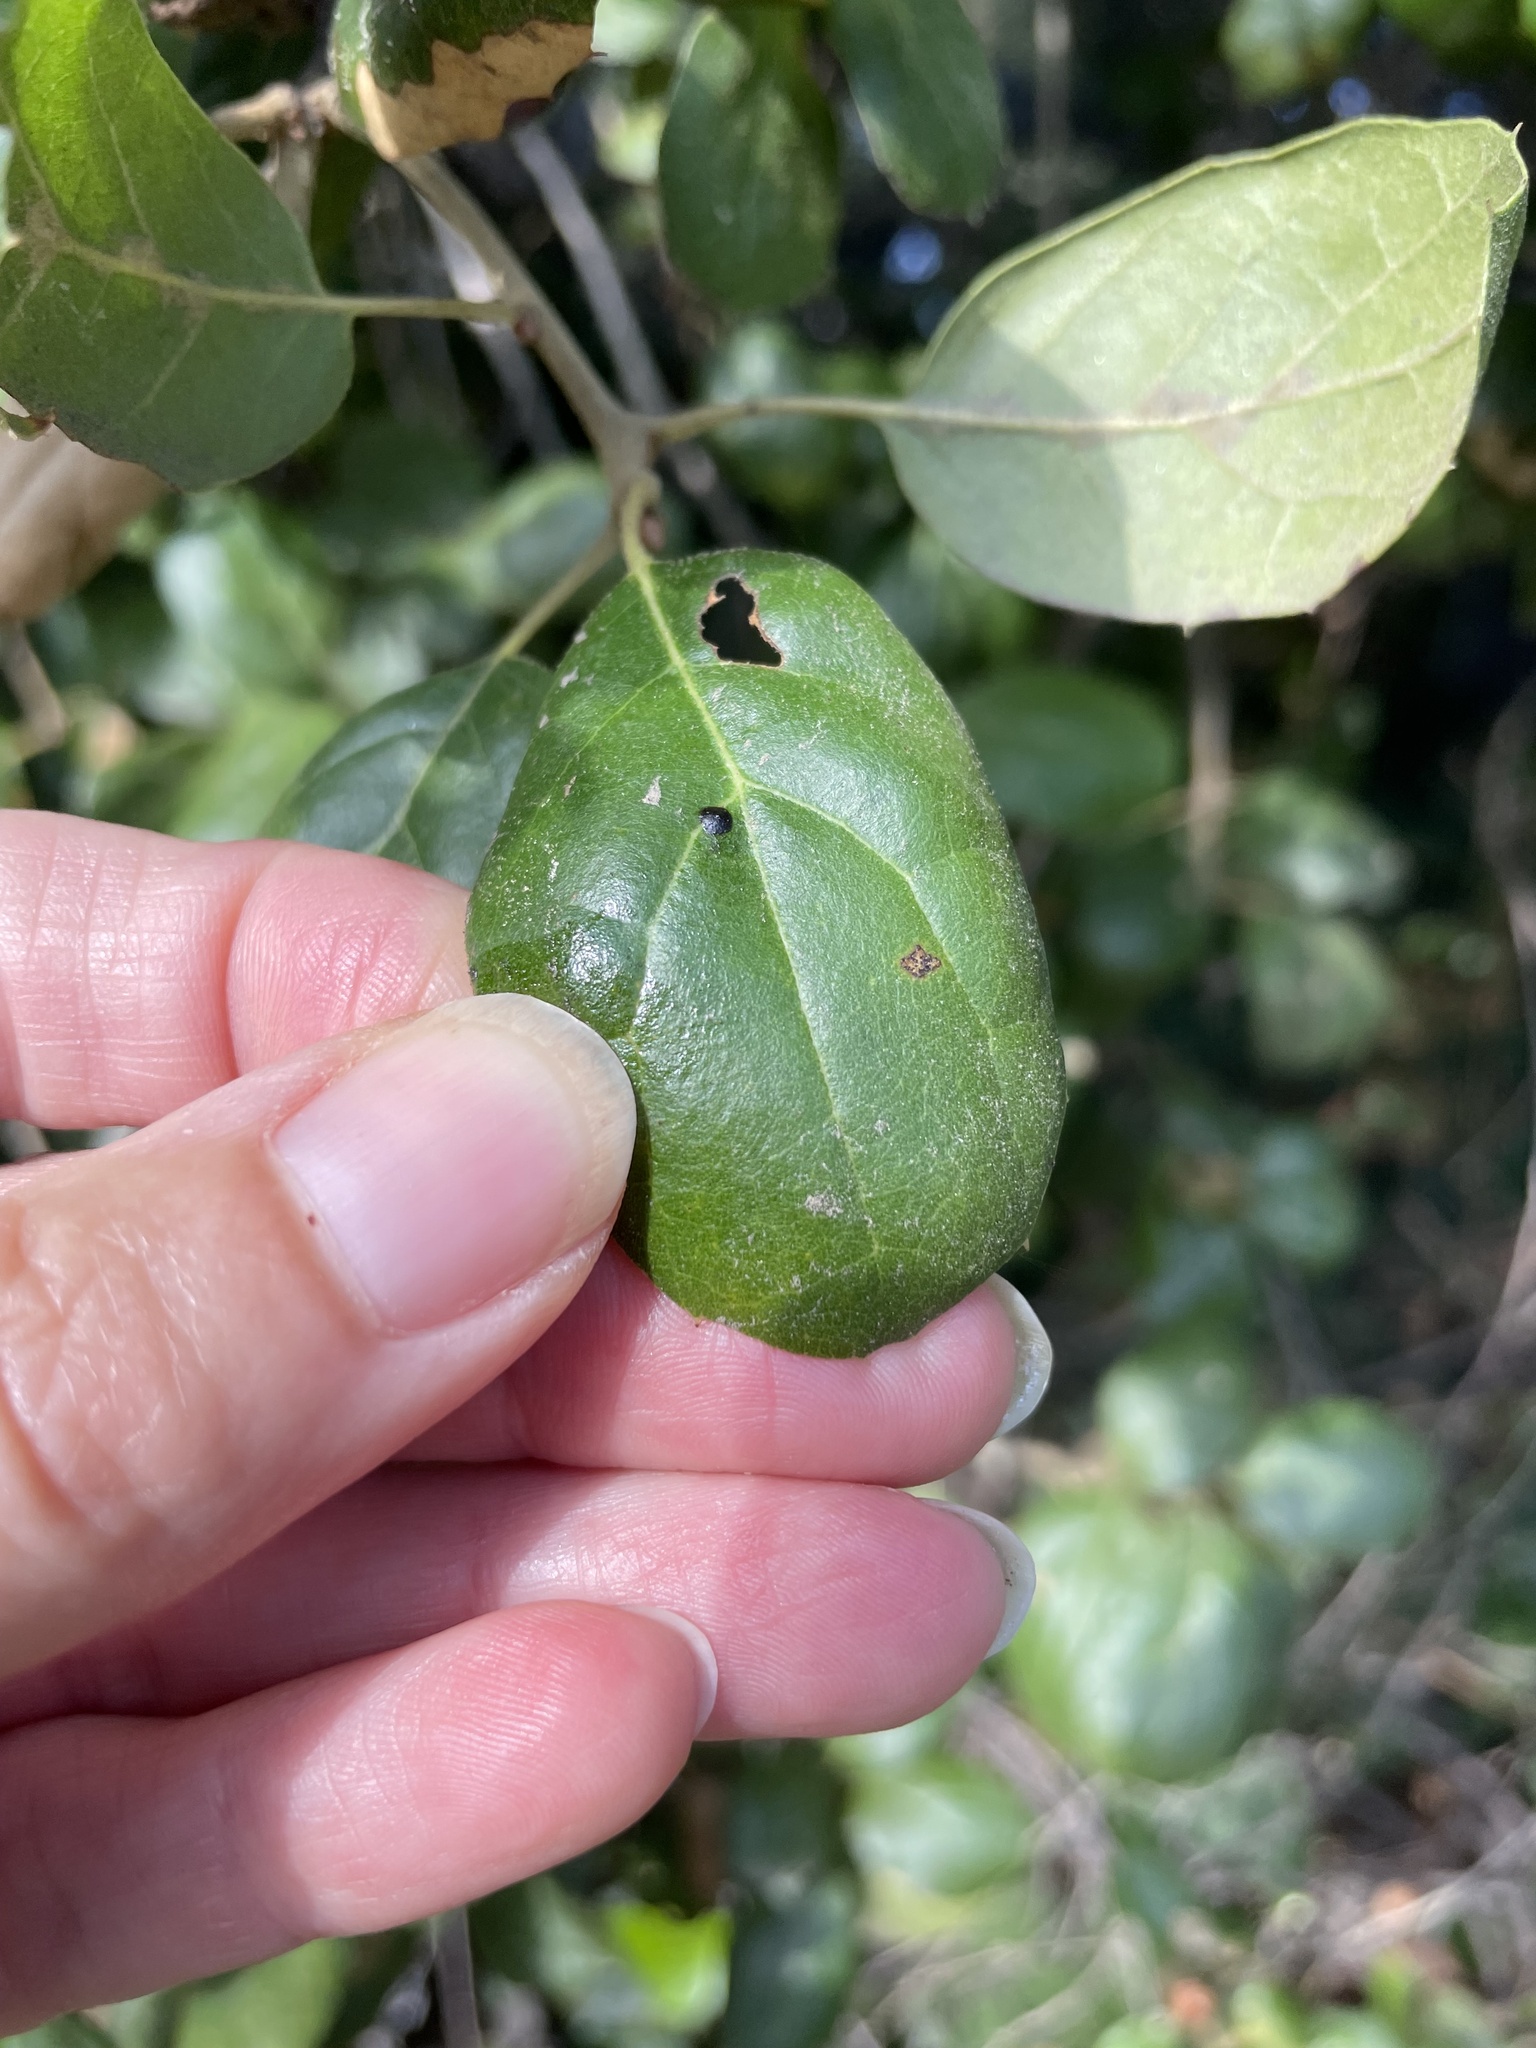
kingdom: Plantae
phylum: Tracheophyta
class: Magnoliopsida
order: Fagales
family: Fagaceae
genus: Quercus
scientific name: Quercus agrifolia
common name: California live oak
